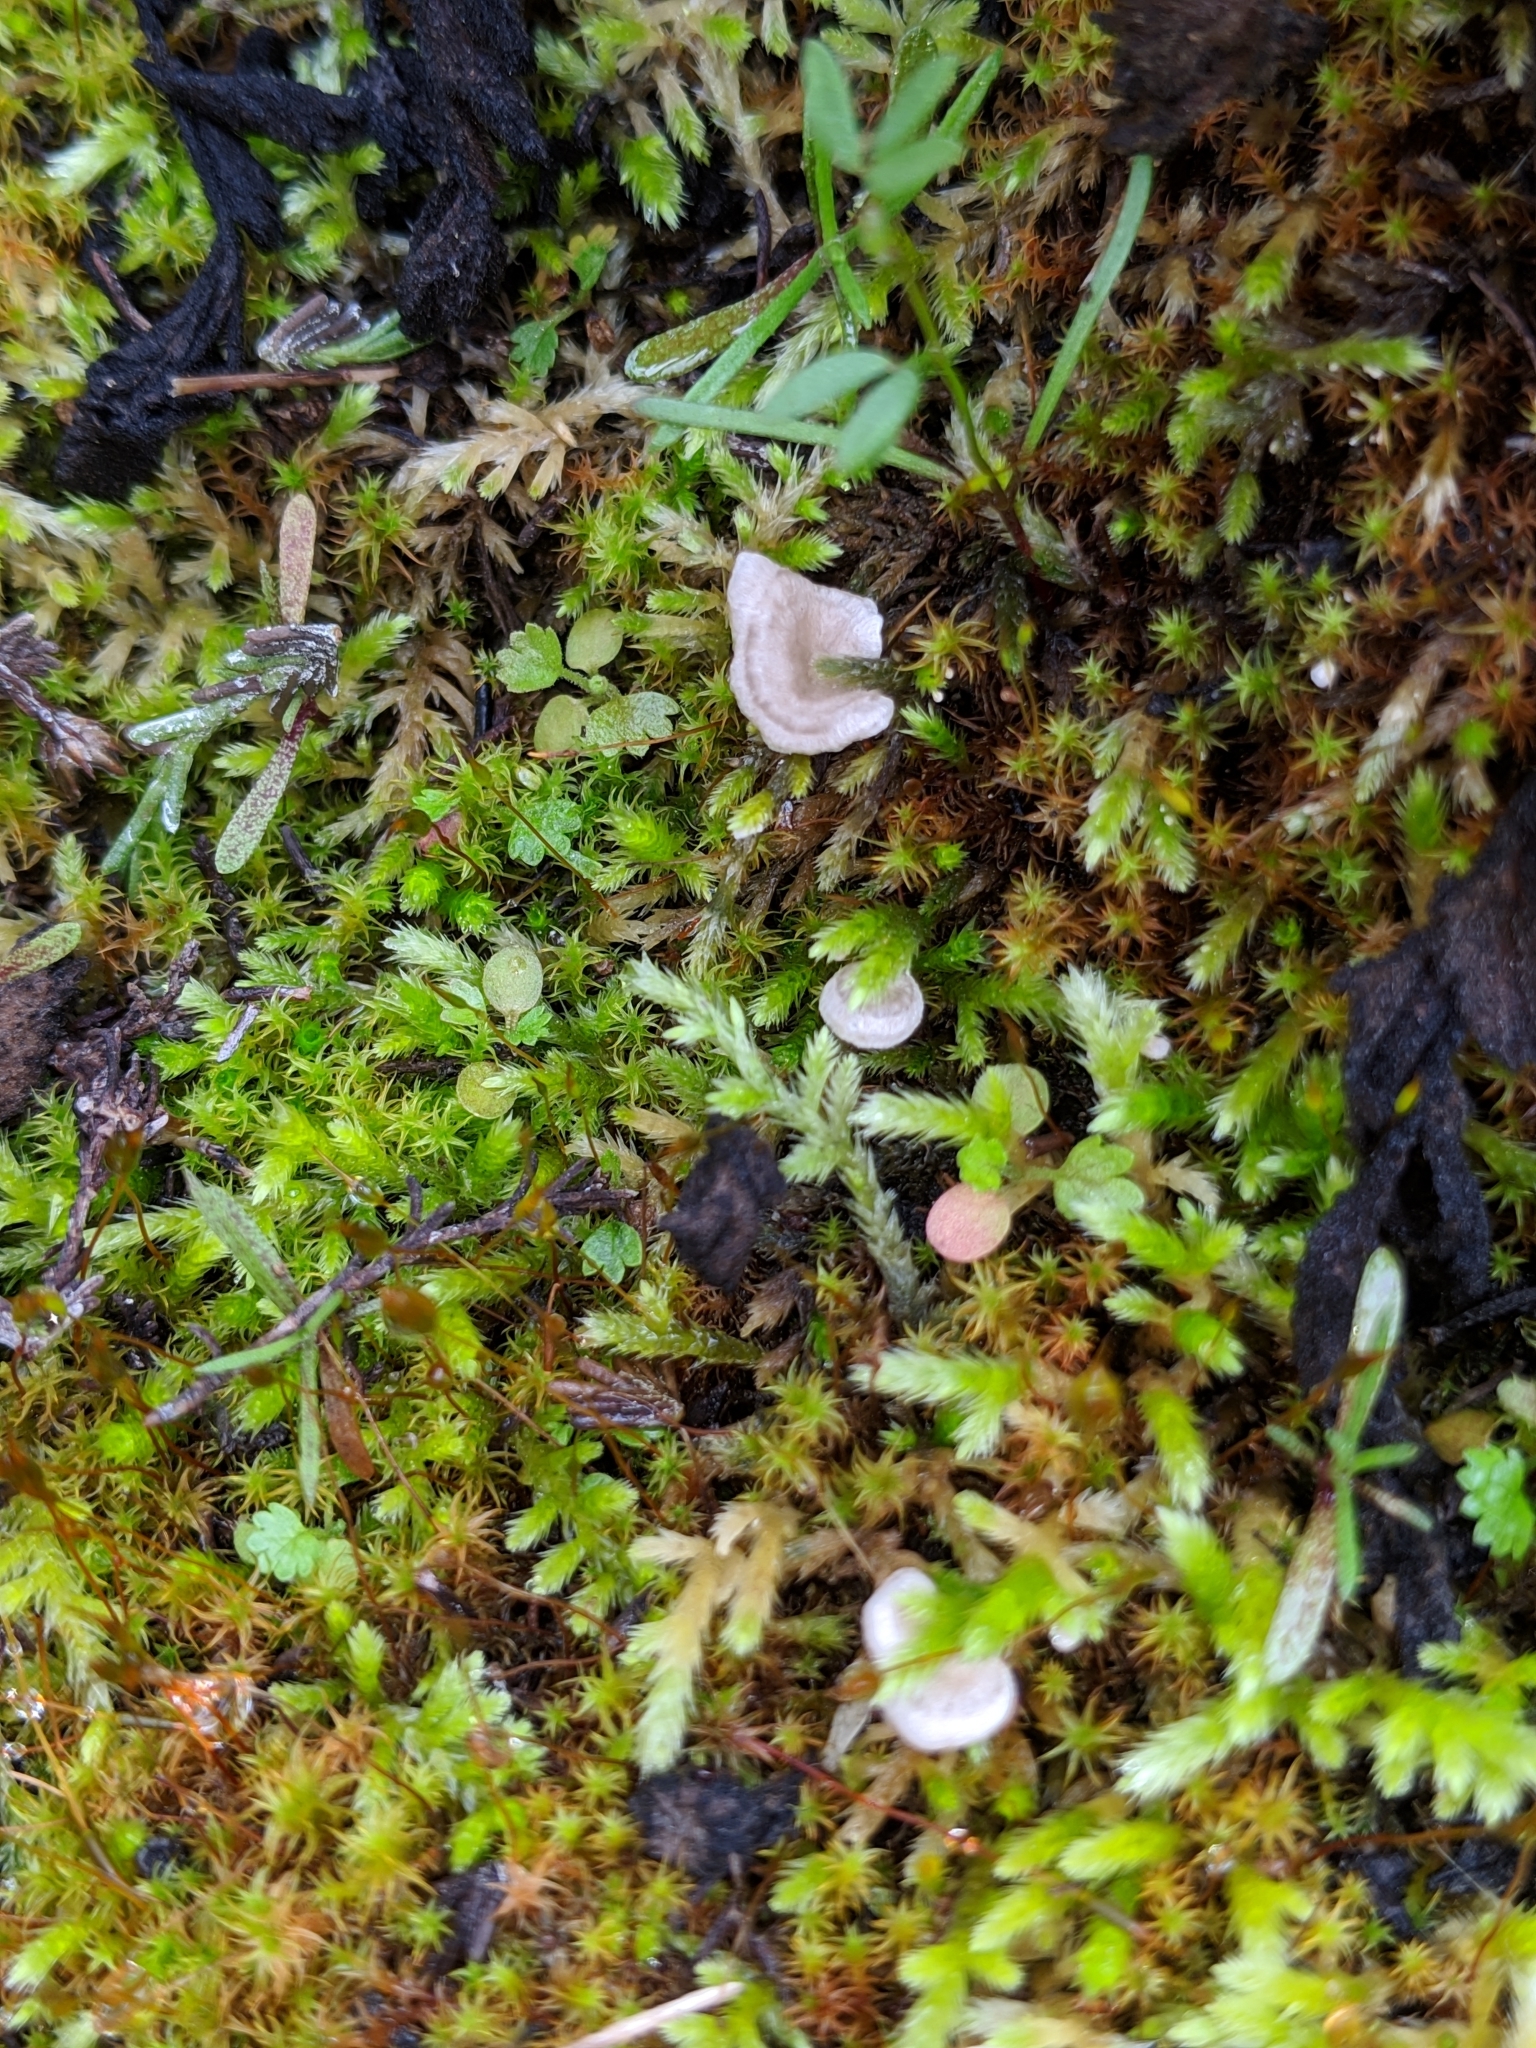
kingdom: Fungi
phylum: Basidiomycota
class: Agaricomycetes
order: Agaricales
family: Hygrophoraceae
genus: Arrhenia
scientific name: Arrhenia retiruga
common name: Small moss oysterling
